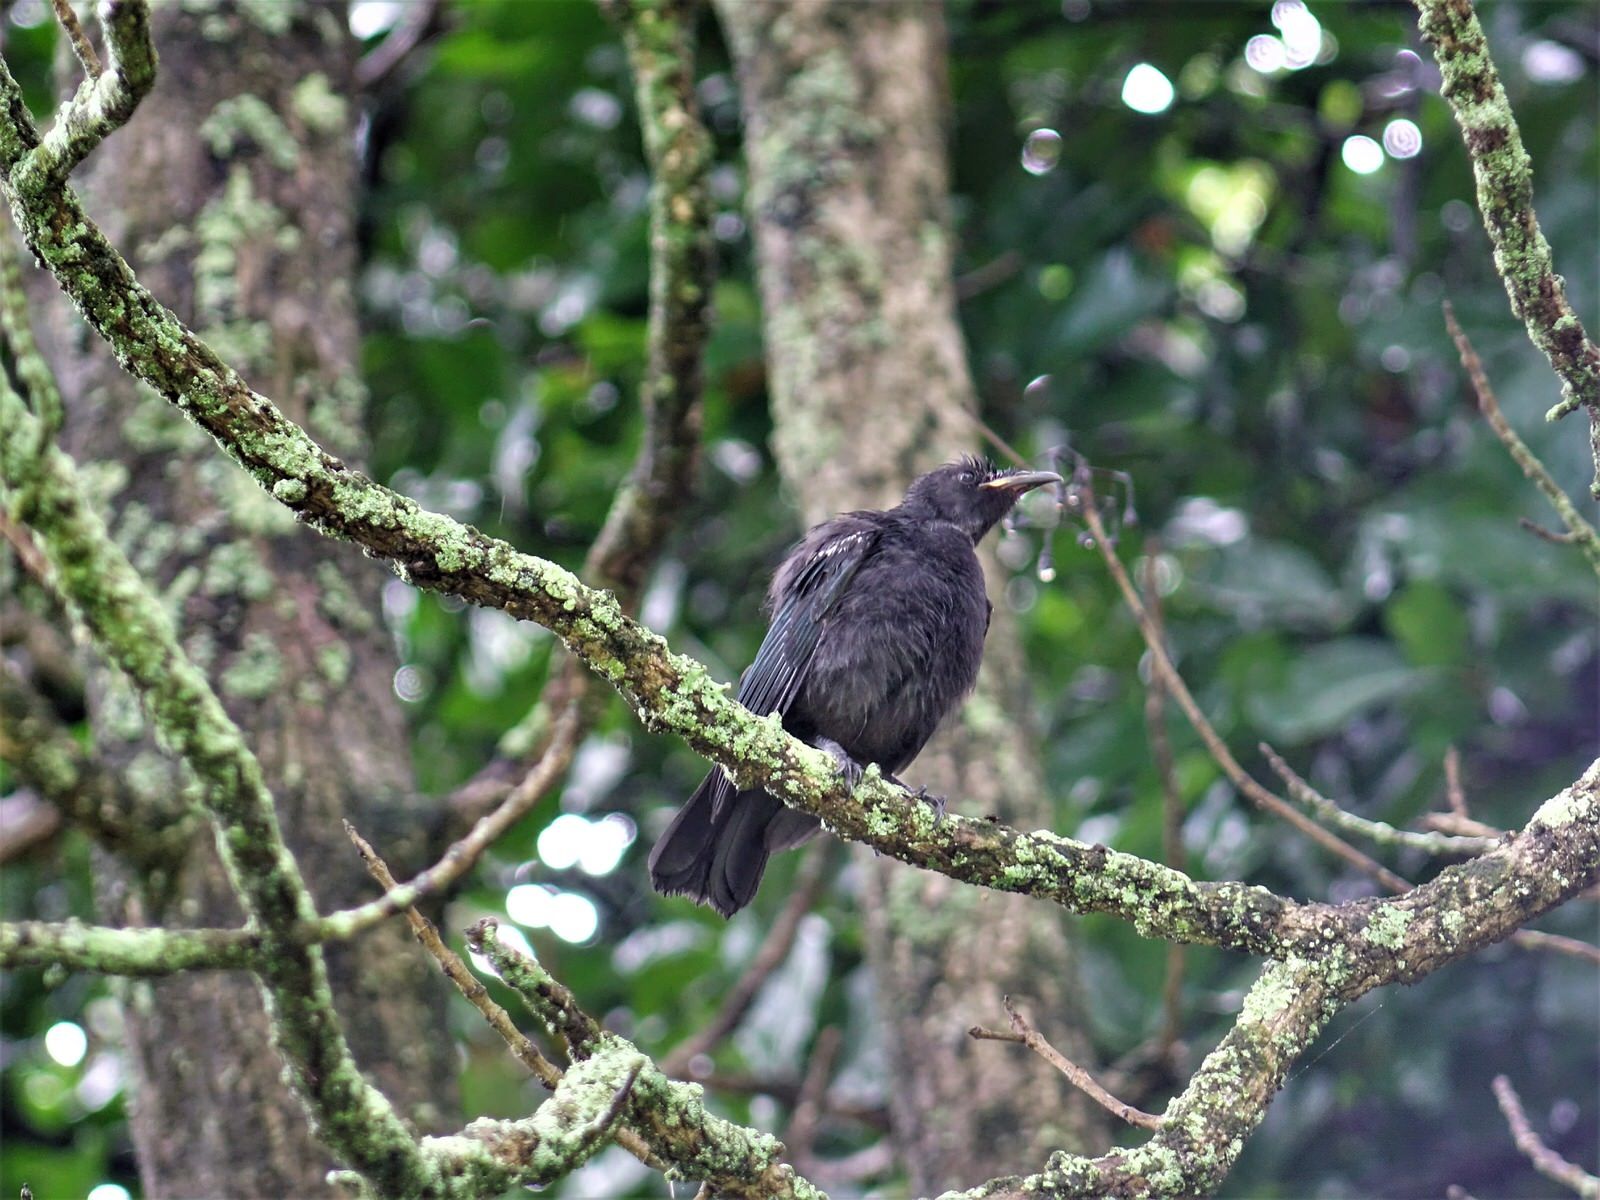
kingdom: Animalia
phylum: Chordata
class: Aves
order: Passeriformes
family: Meliphagidae
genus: Prosthemadera
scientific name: Prosthemadera novaeseelandiae
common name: Tui
